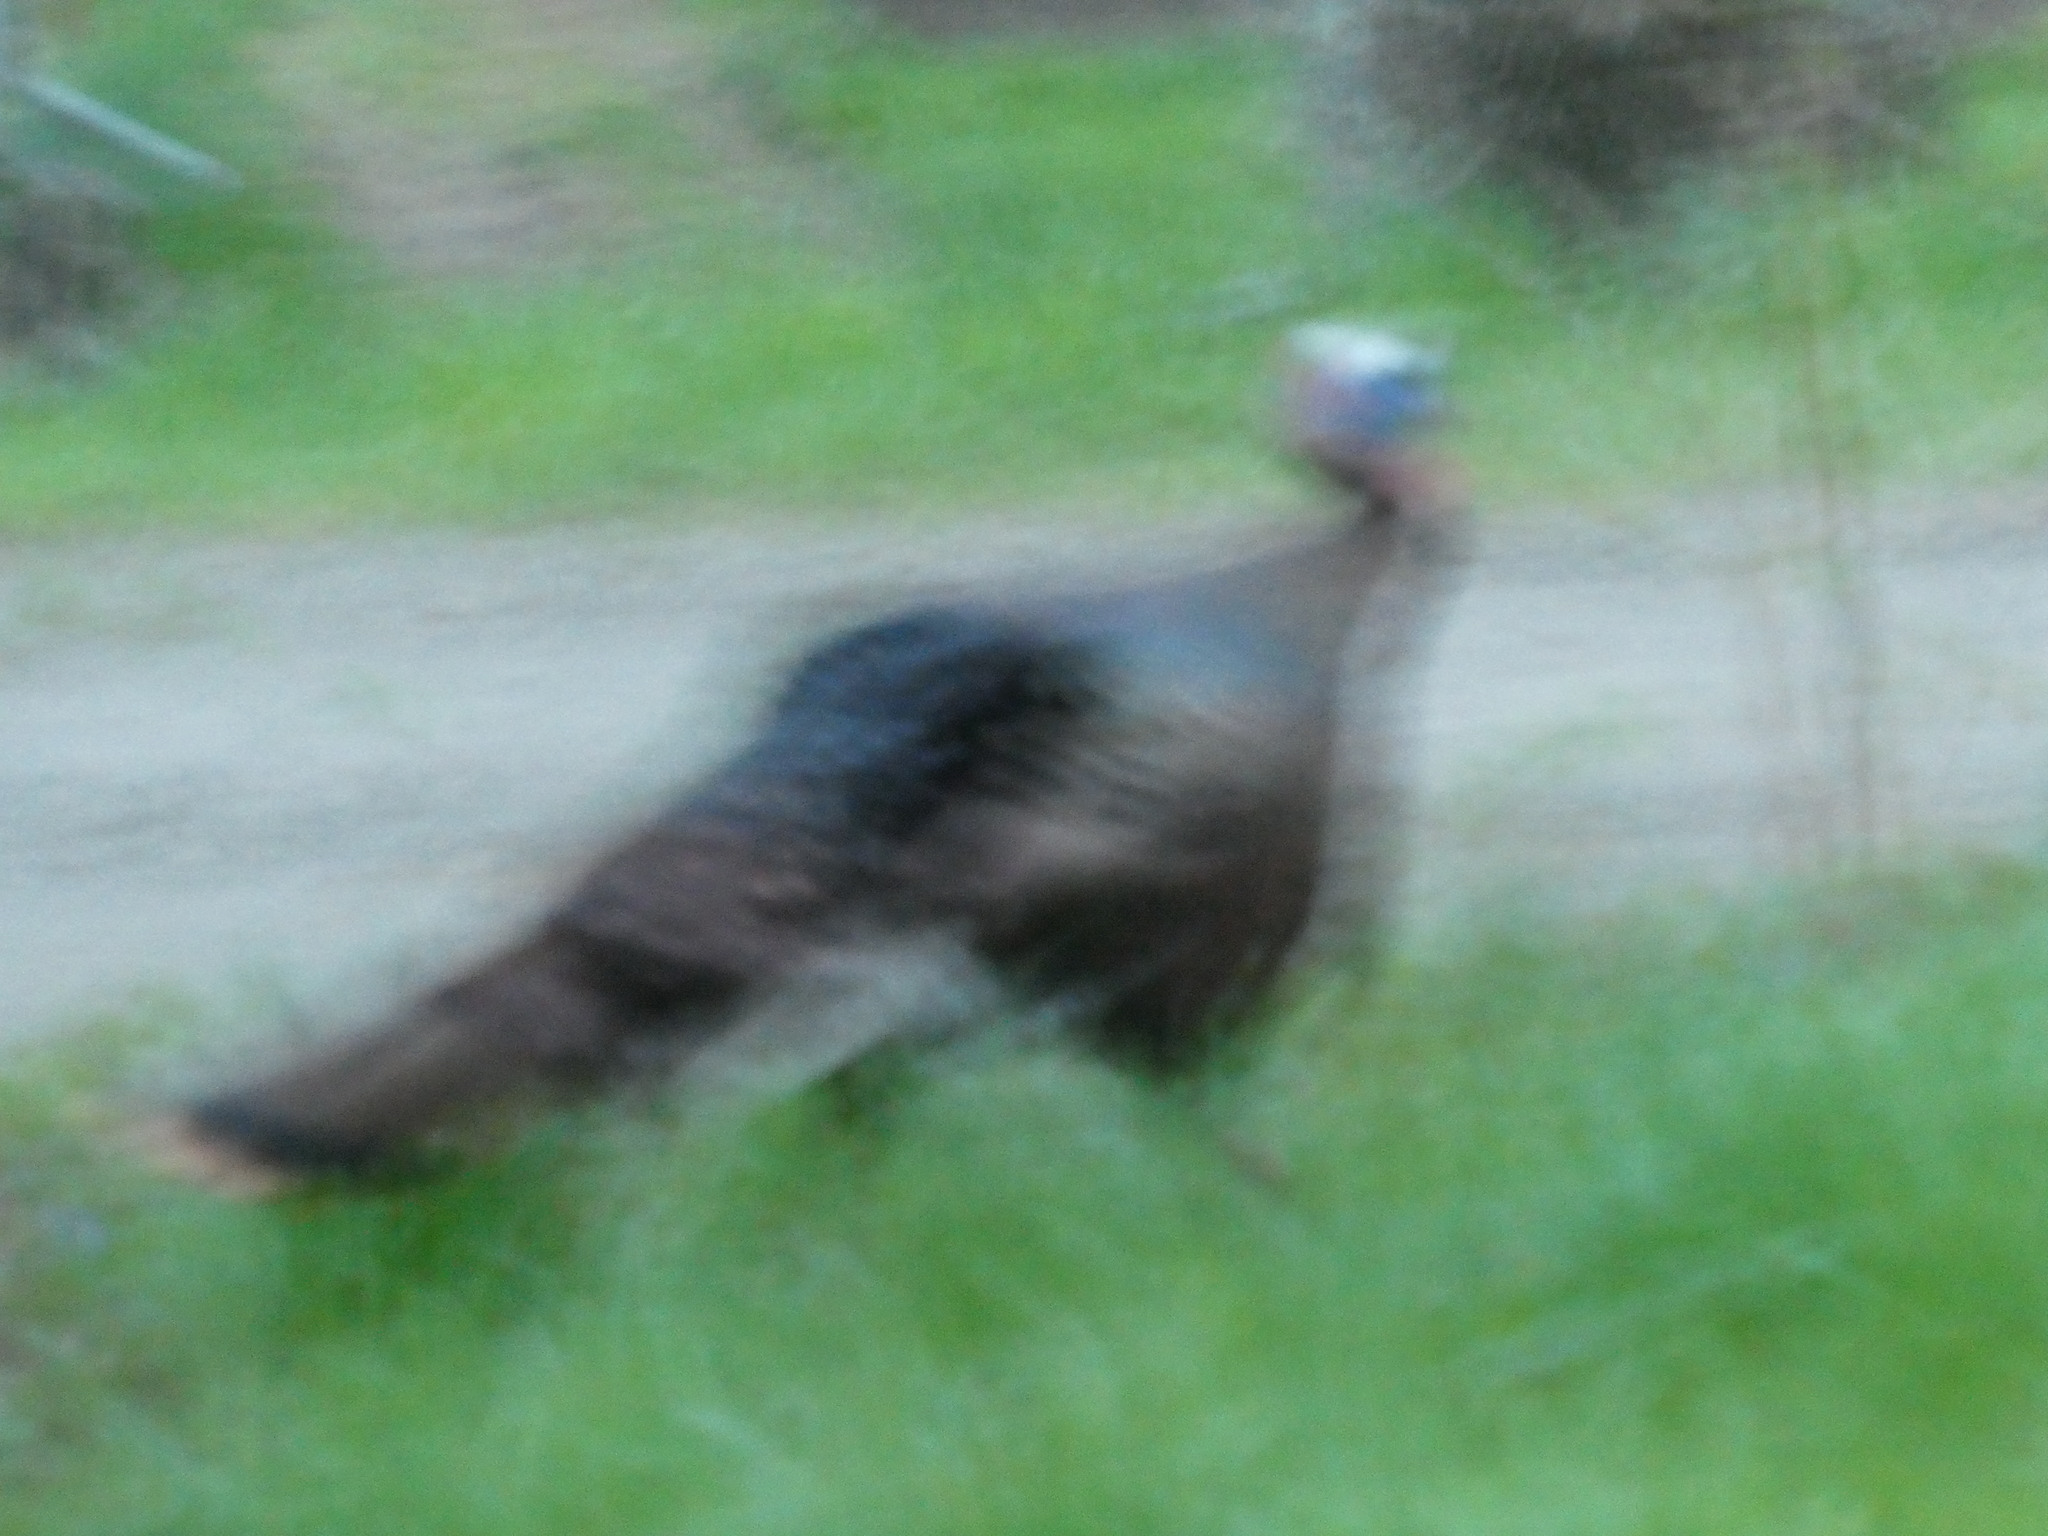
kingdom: Animalia
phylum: Chordata
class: Aves
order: Galliformes
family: Phasianidae
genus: Meleagris
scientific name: Meleagris gallopavo
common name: Wild turkey
